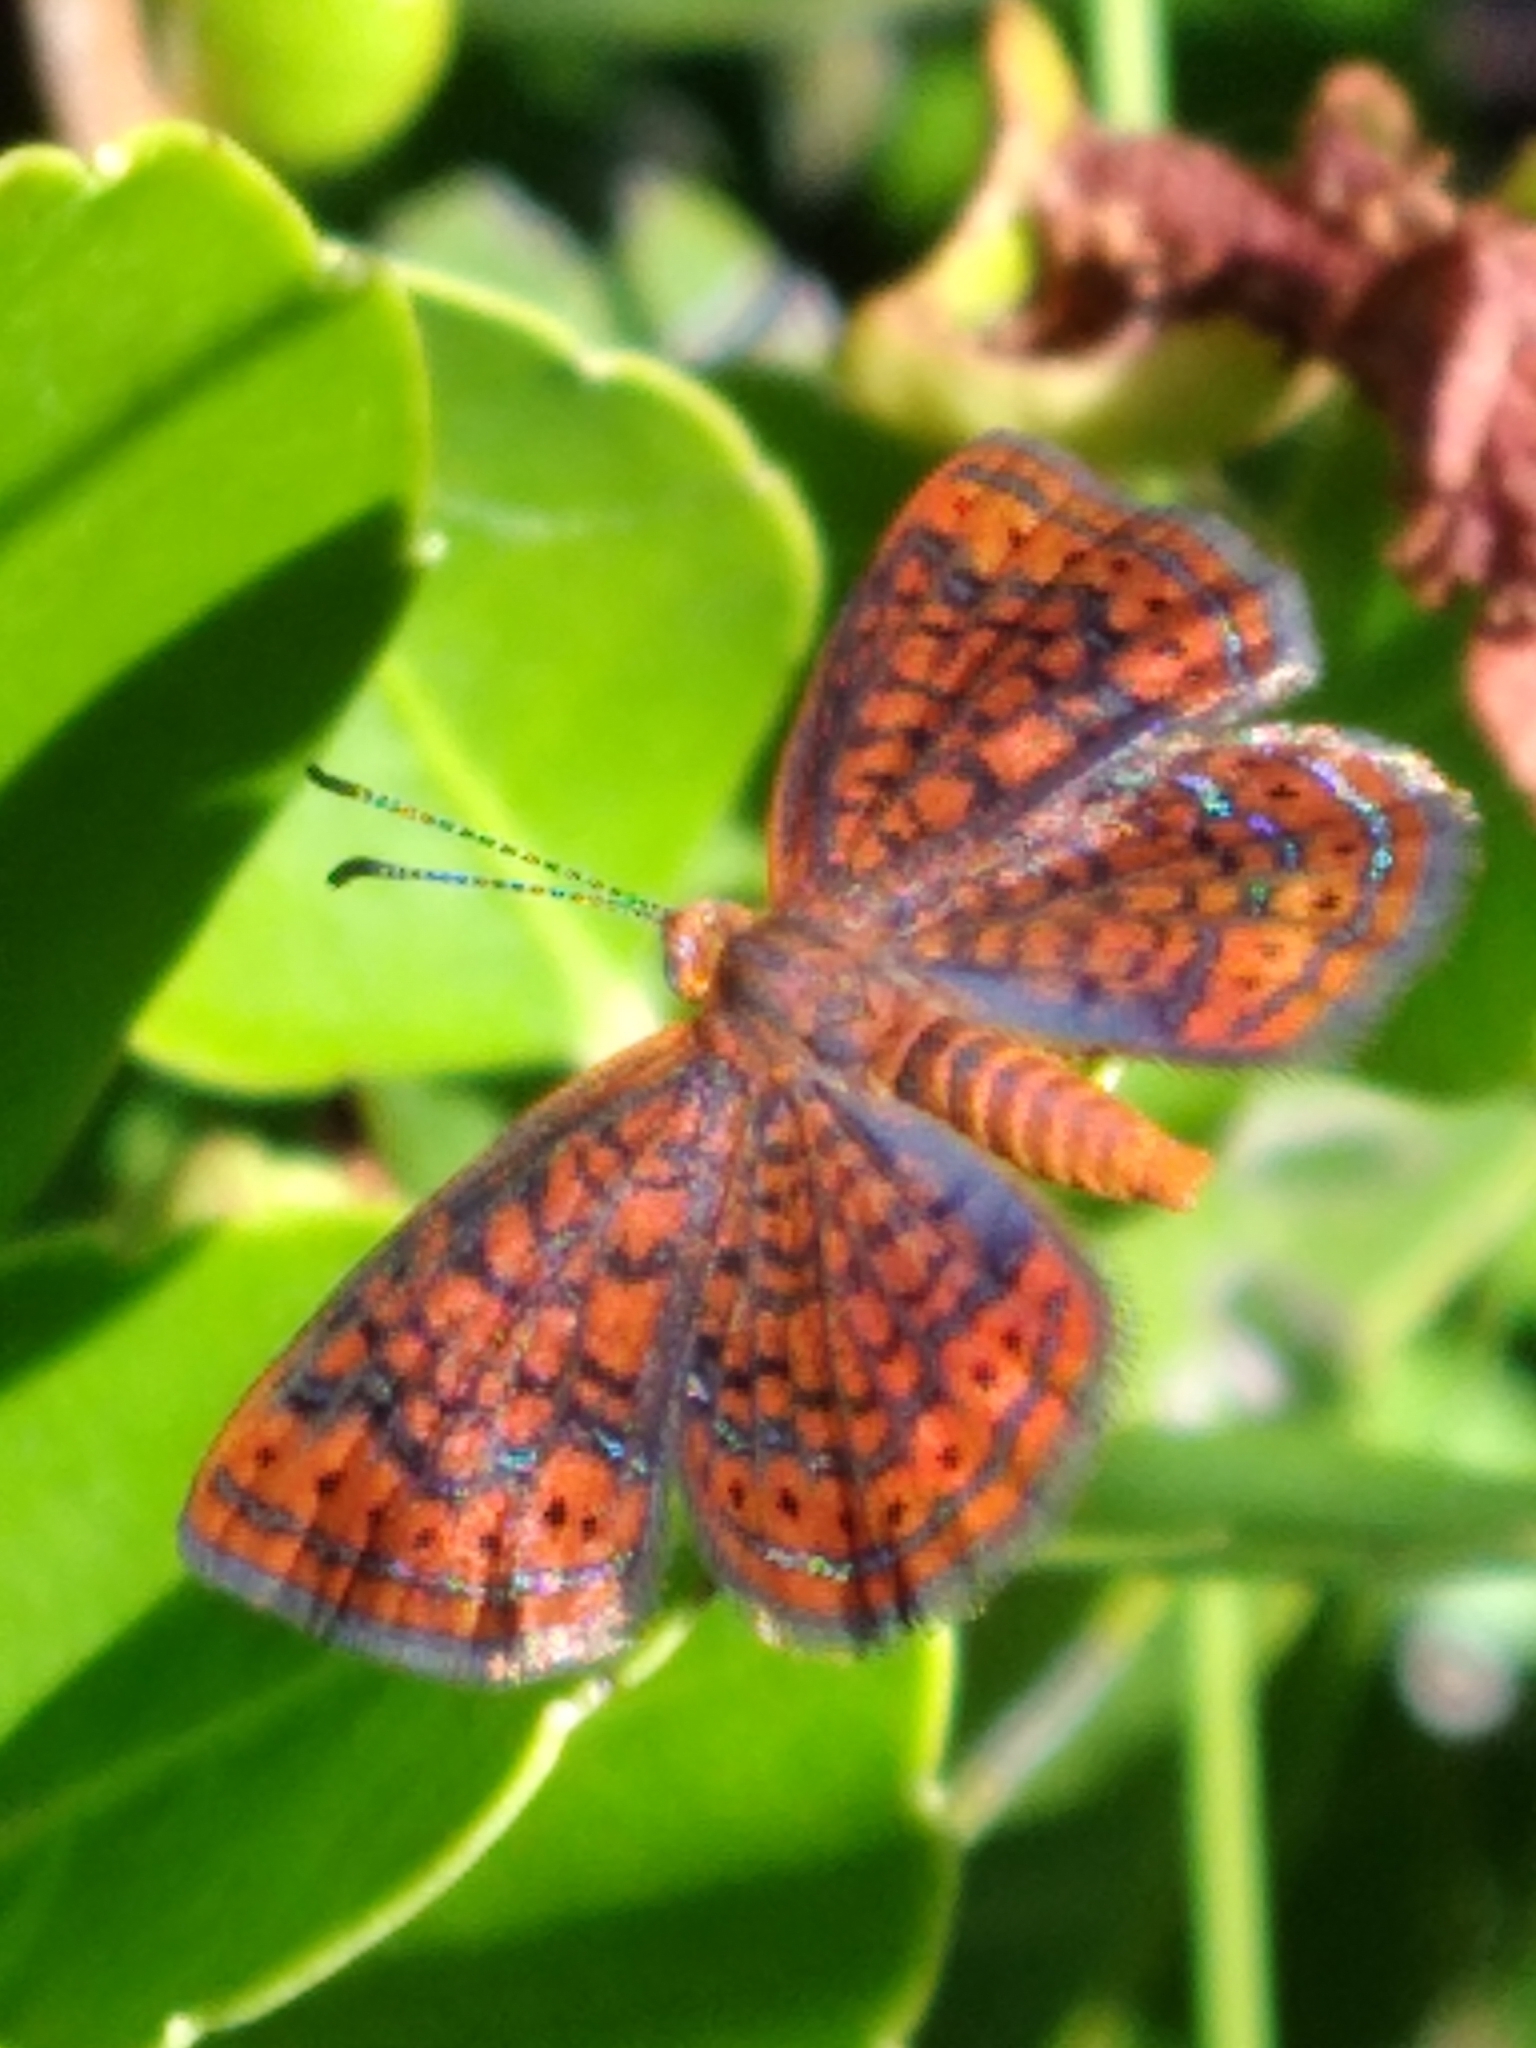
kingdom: Animalia
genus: Calephelis
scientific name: Calephelis virginiensis
